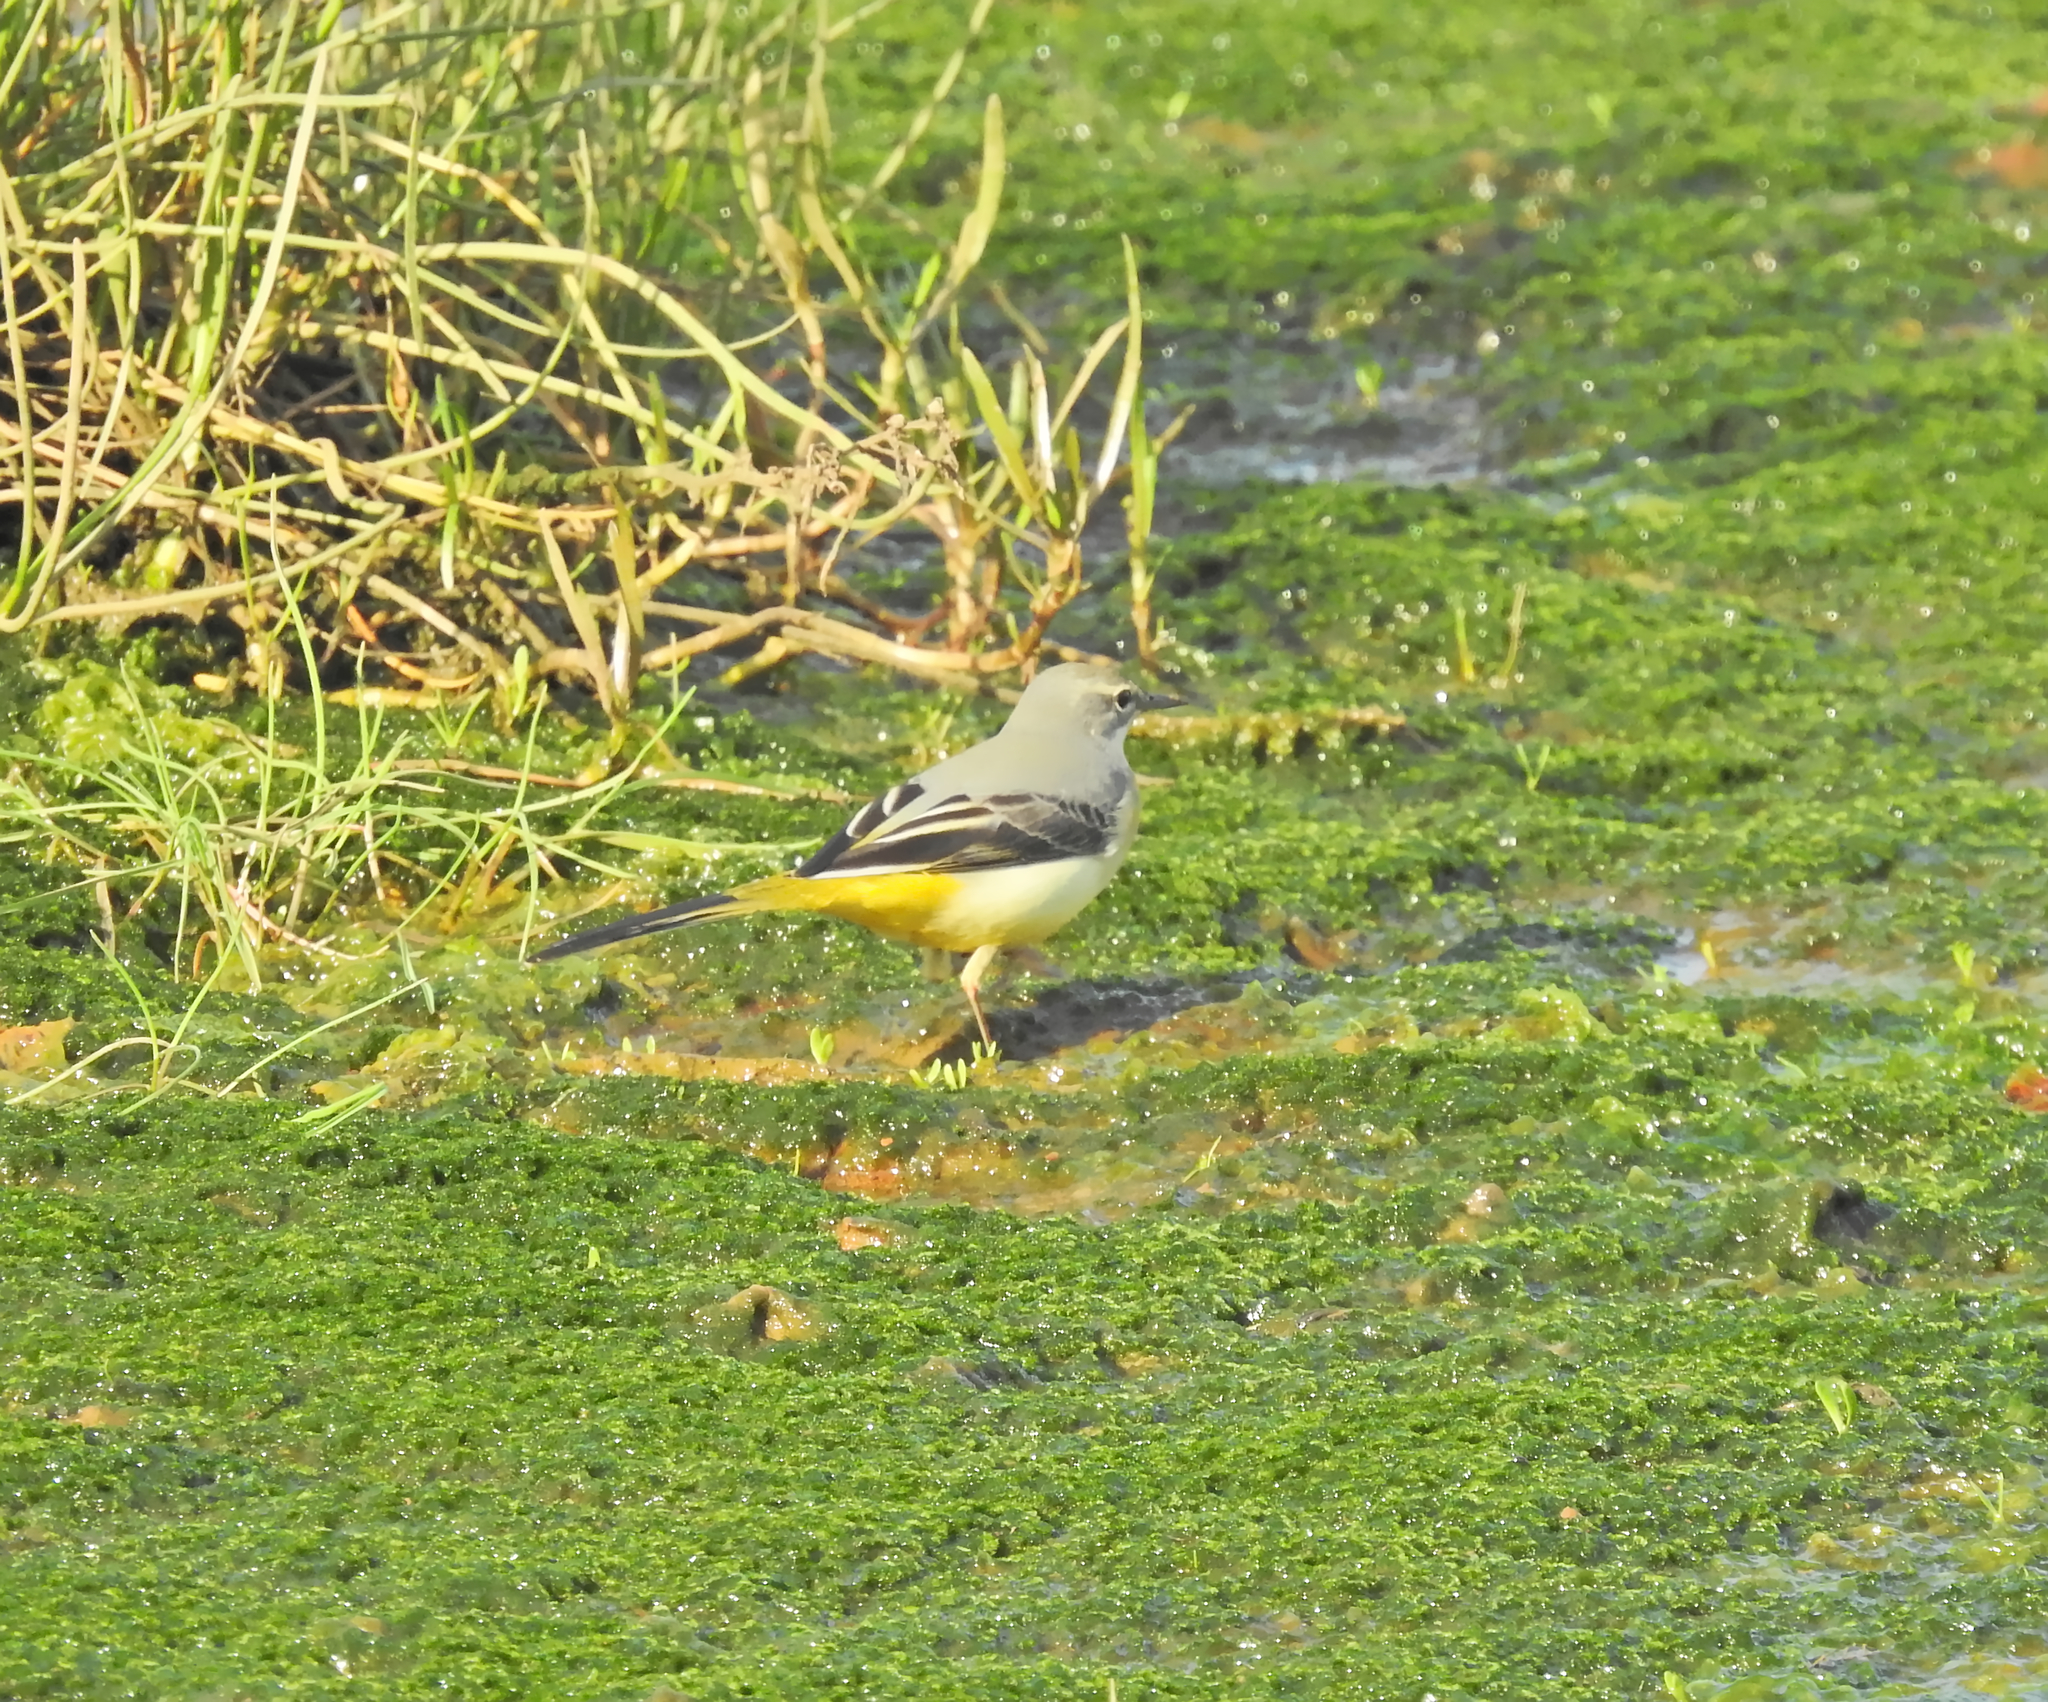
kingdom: Animalia
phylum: Chordata
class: Aves
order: Passeriformes
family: Motacillidae
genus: Motacilla
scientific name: Motacilla cinerea
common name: Grey wagtail
